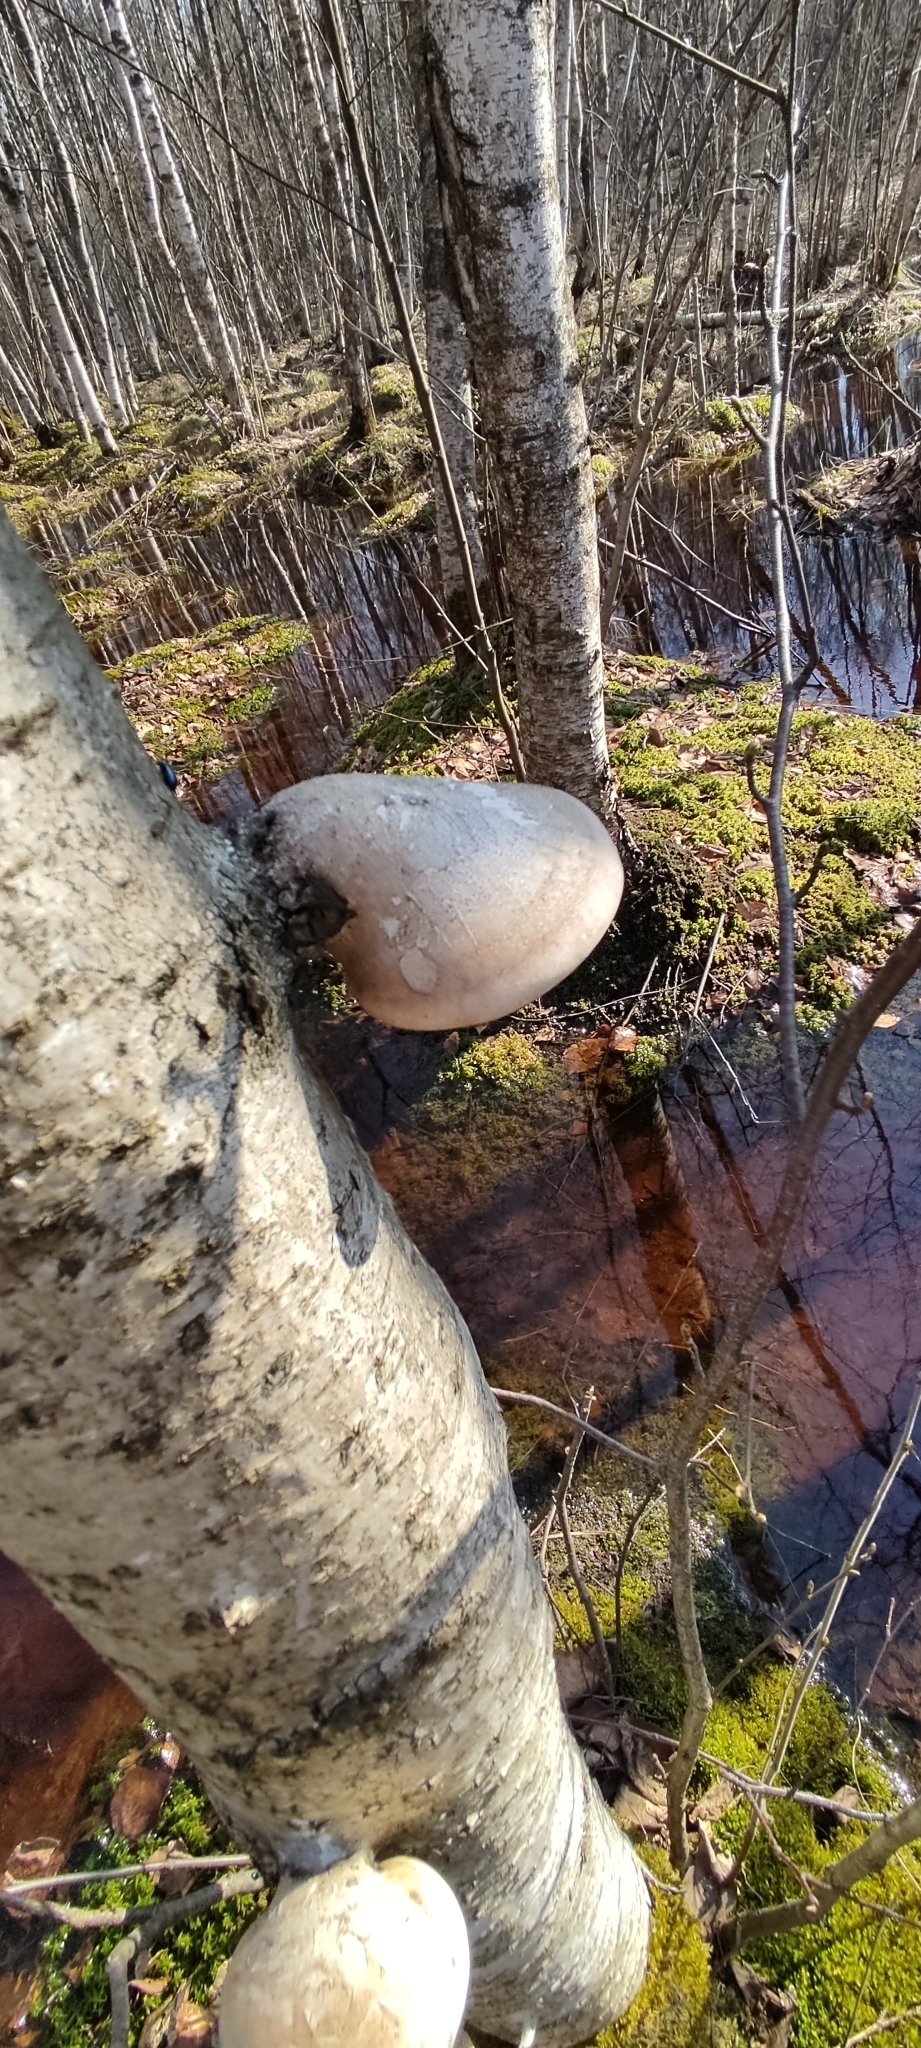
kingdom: Fungi
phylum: Basidiomycota
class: Agaricomycetes
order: Polyporales
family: Fomitopsidaceae
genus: Fomitopsis
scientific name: Fomitopsis betulina
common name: Birch polypore
